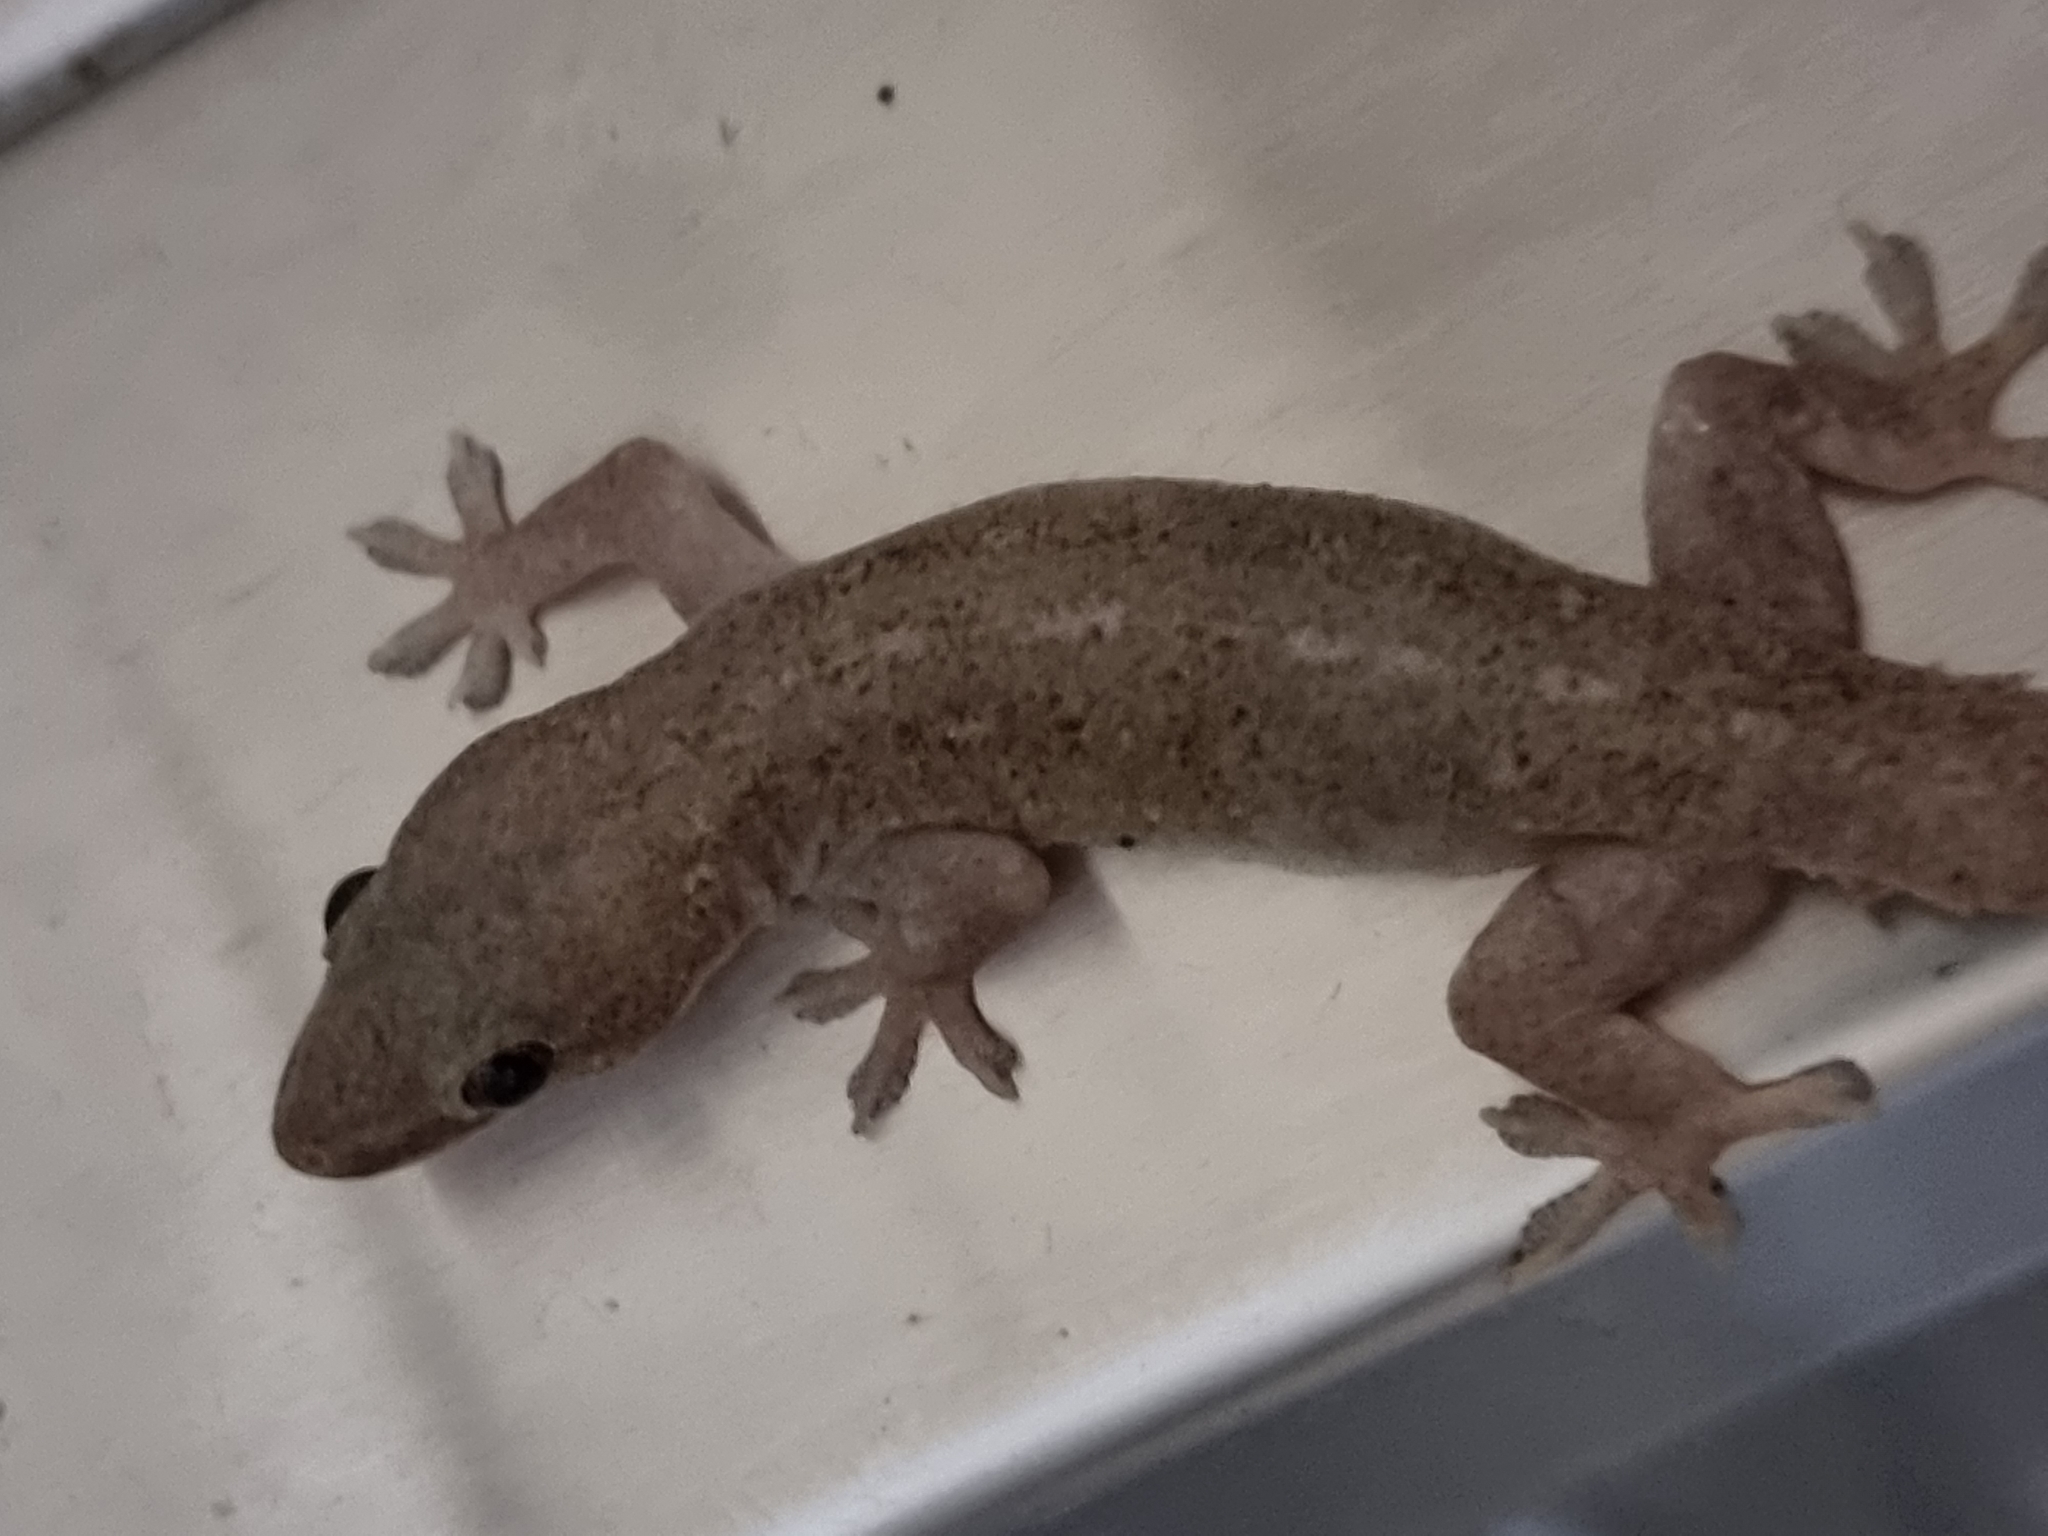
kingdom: Animalia
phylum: Chordata
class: Squamata
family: Gekkonidae
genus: Hemidactylus
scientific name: Hemidactylus frenatus
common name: Common house gecko
